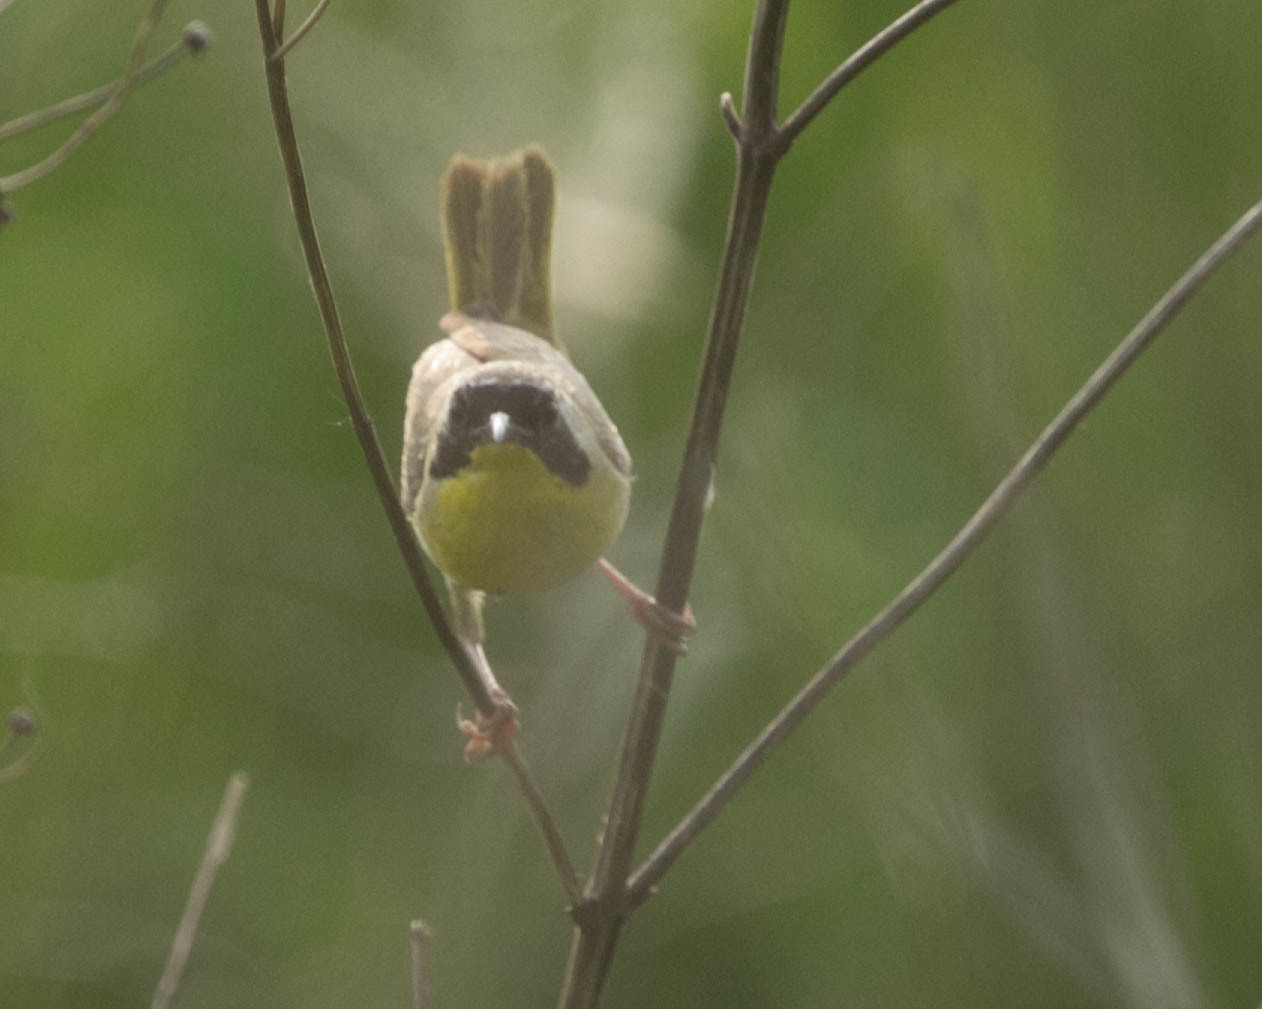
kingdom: Animalia
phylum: Chordata
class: Aves
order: Passeriformes
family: Parulidae
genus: Geothlypis
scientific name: Geothlypis trichas
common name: Common yellowthroat
